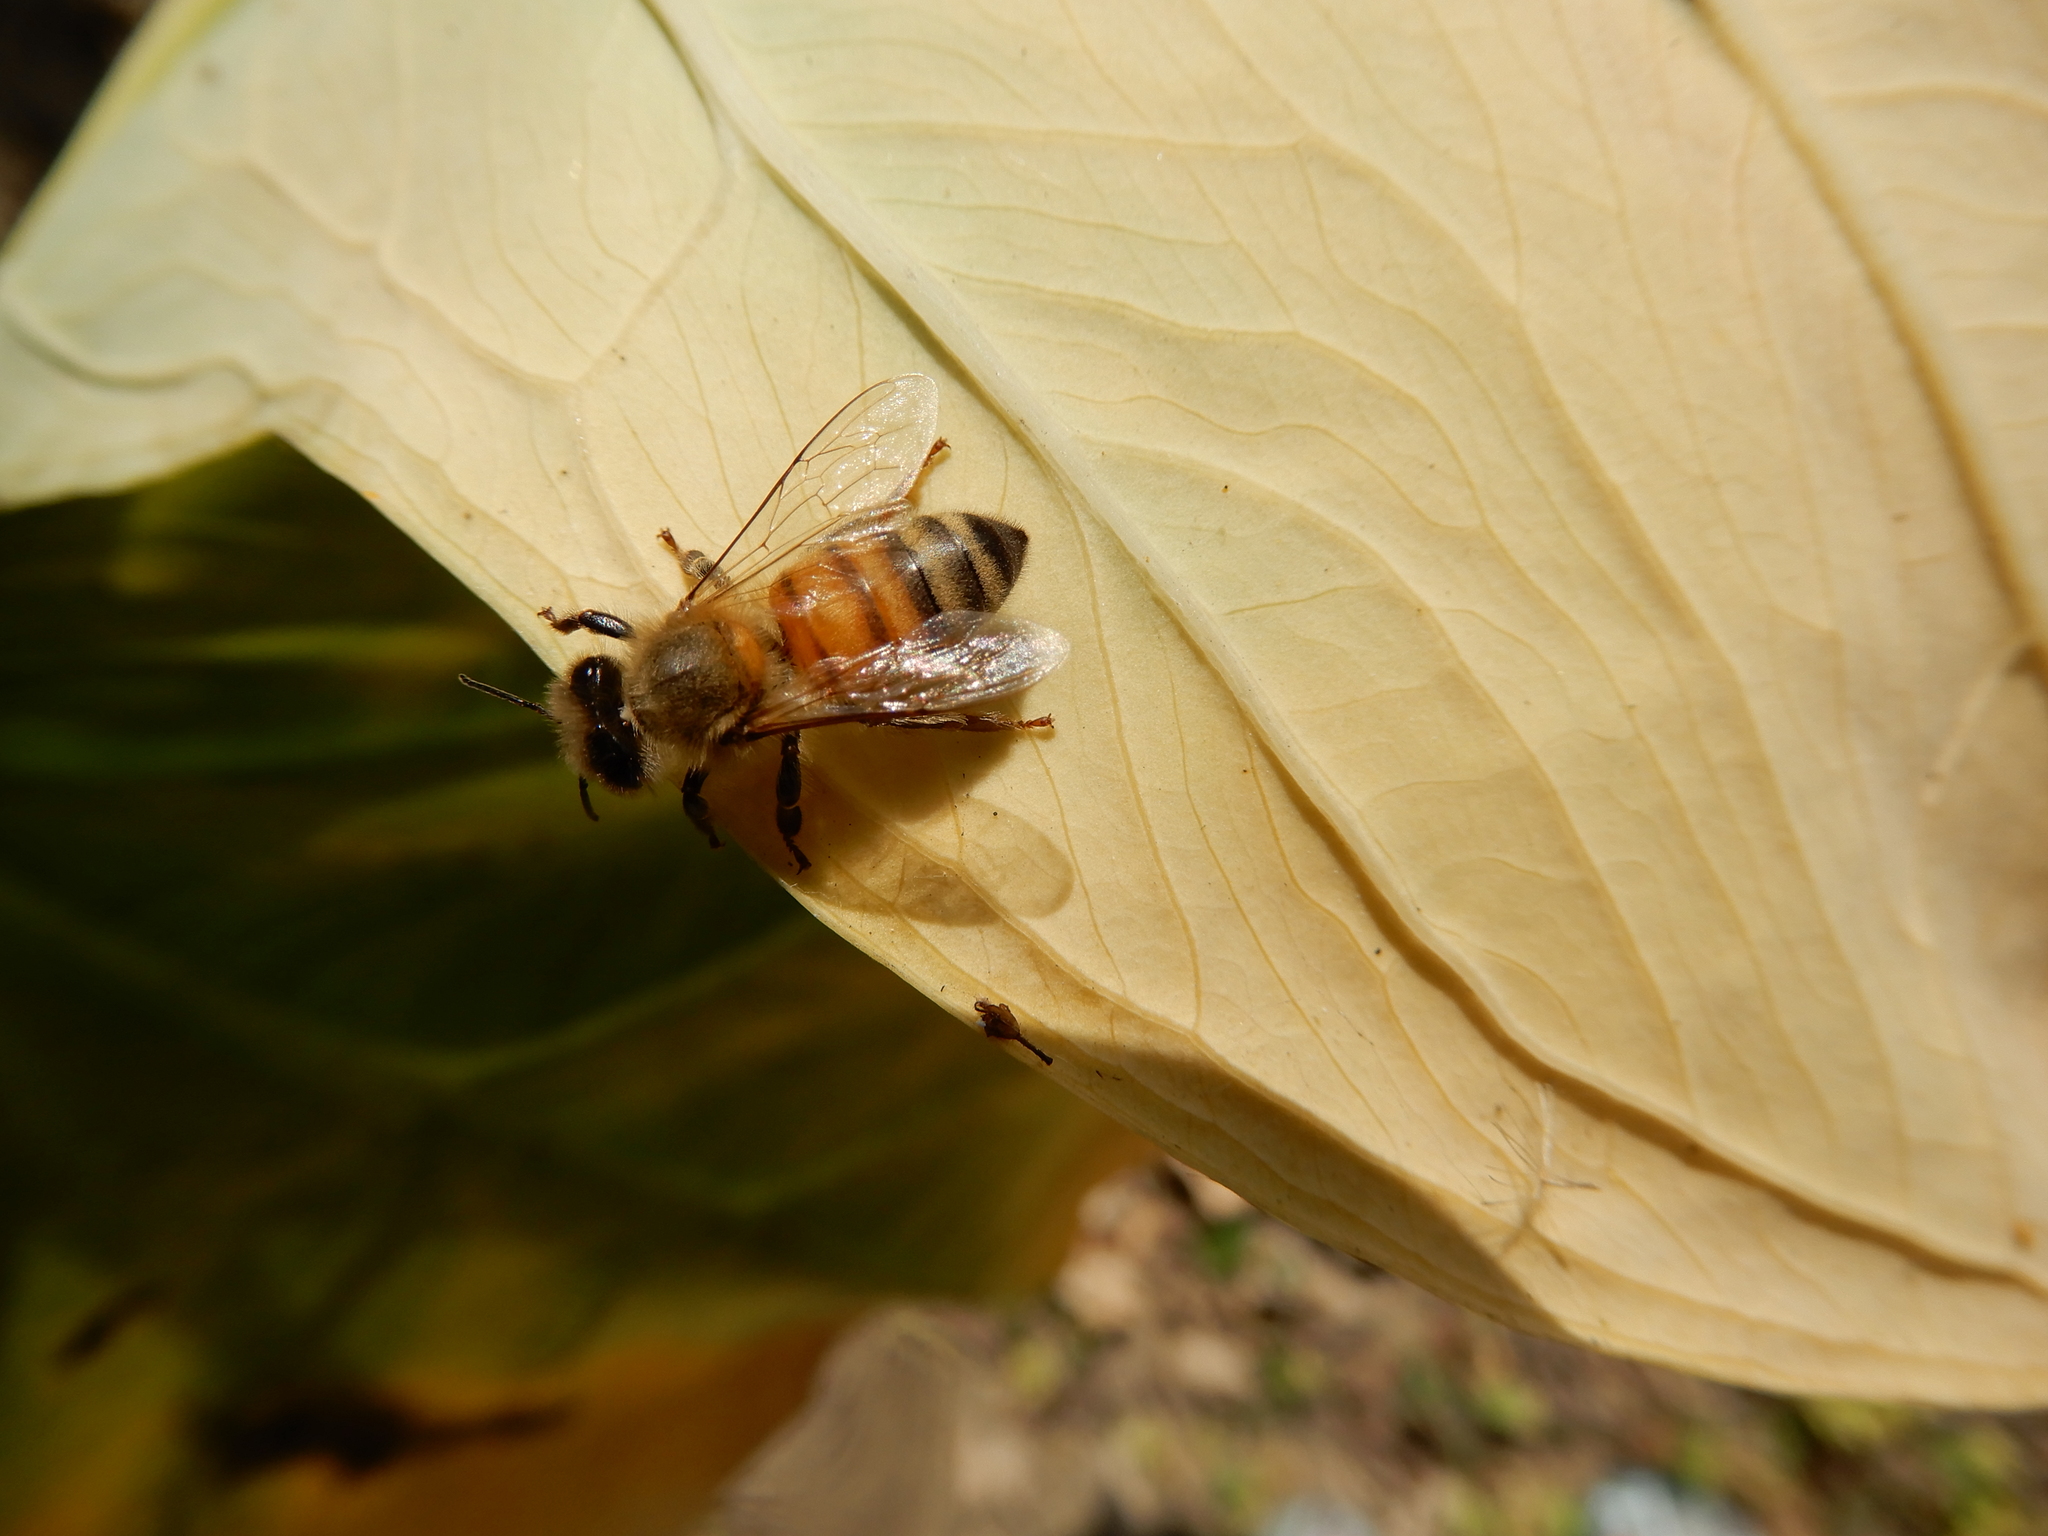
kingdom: Animalia
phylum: Arthropoda
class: Insecta
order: Hymenoptera
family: Apidae
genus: Apis
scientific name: Apis mellifera
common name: Honey bee
